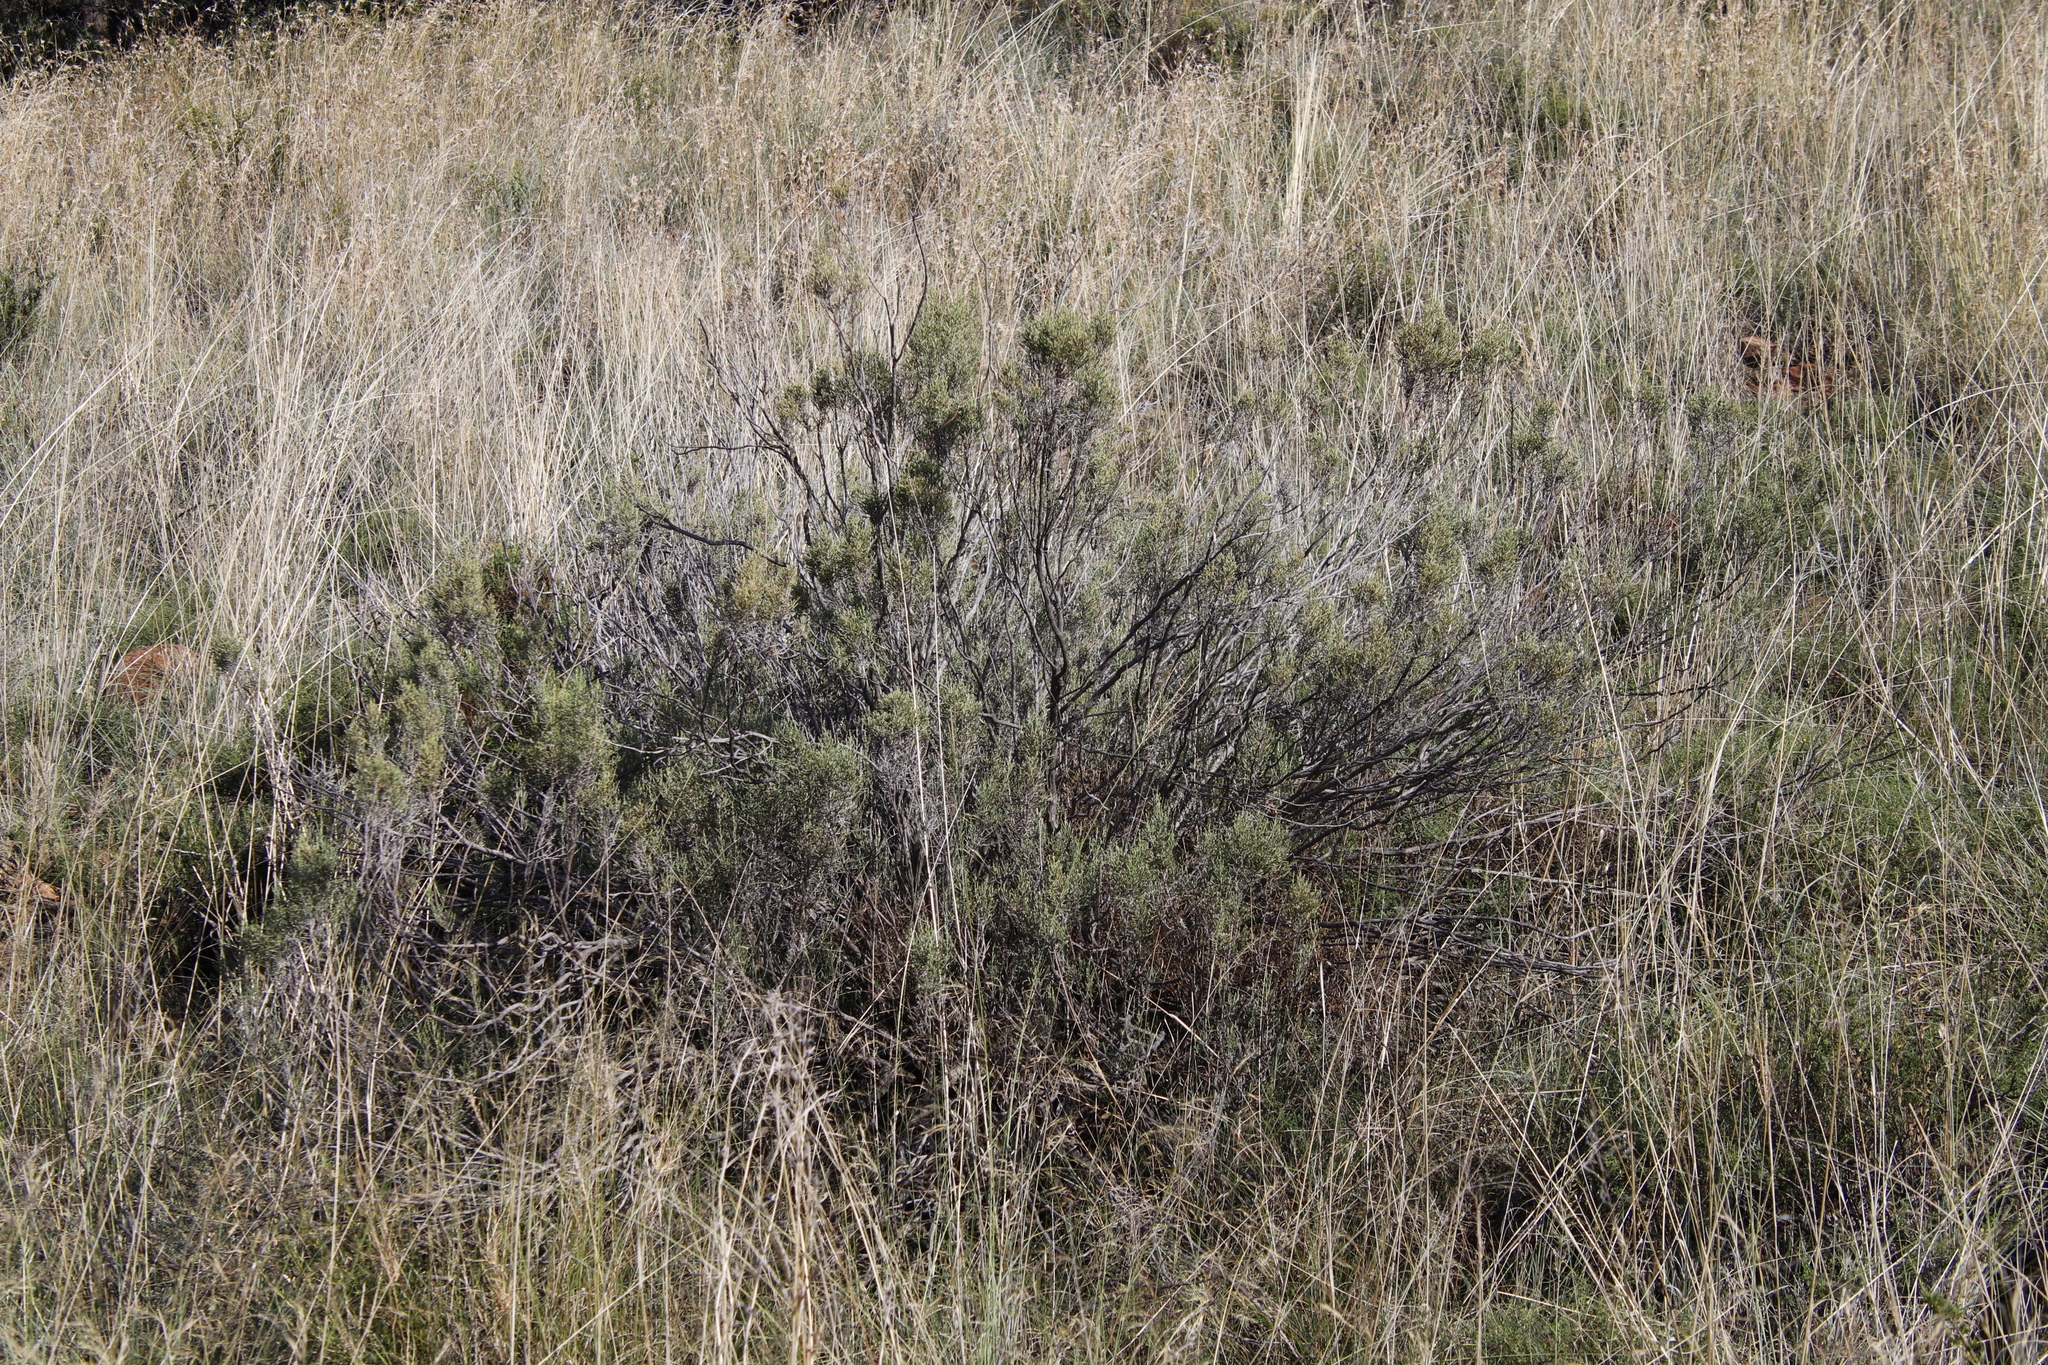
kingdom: Plantae
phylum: Tracheophyta
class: Magnoliopsida
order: Asterales
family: Asteraceae
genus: Dicerothamnus
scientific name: Dicerothamnus rhinocerotis
